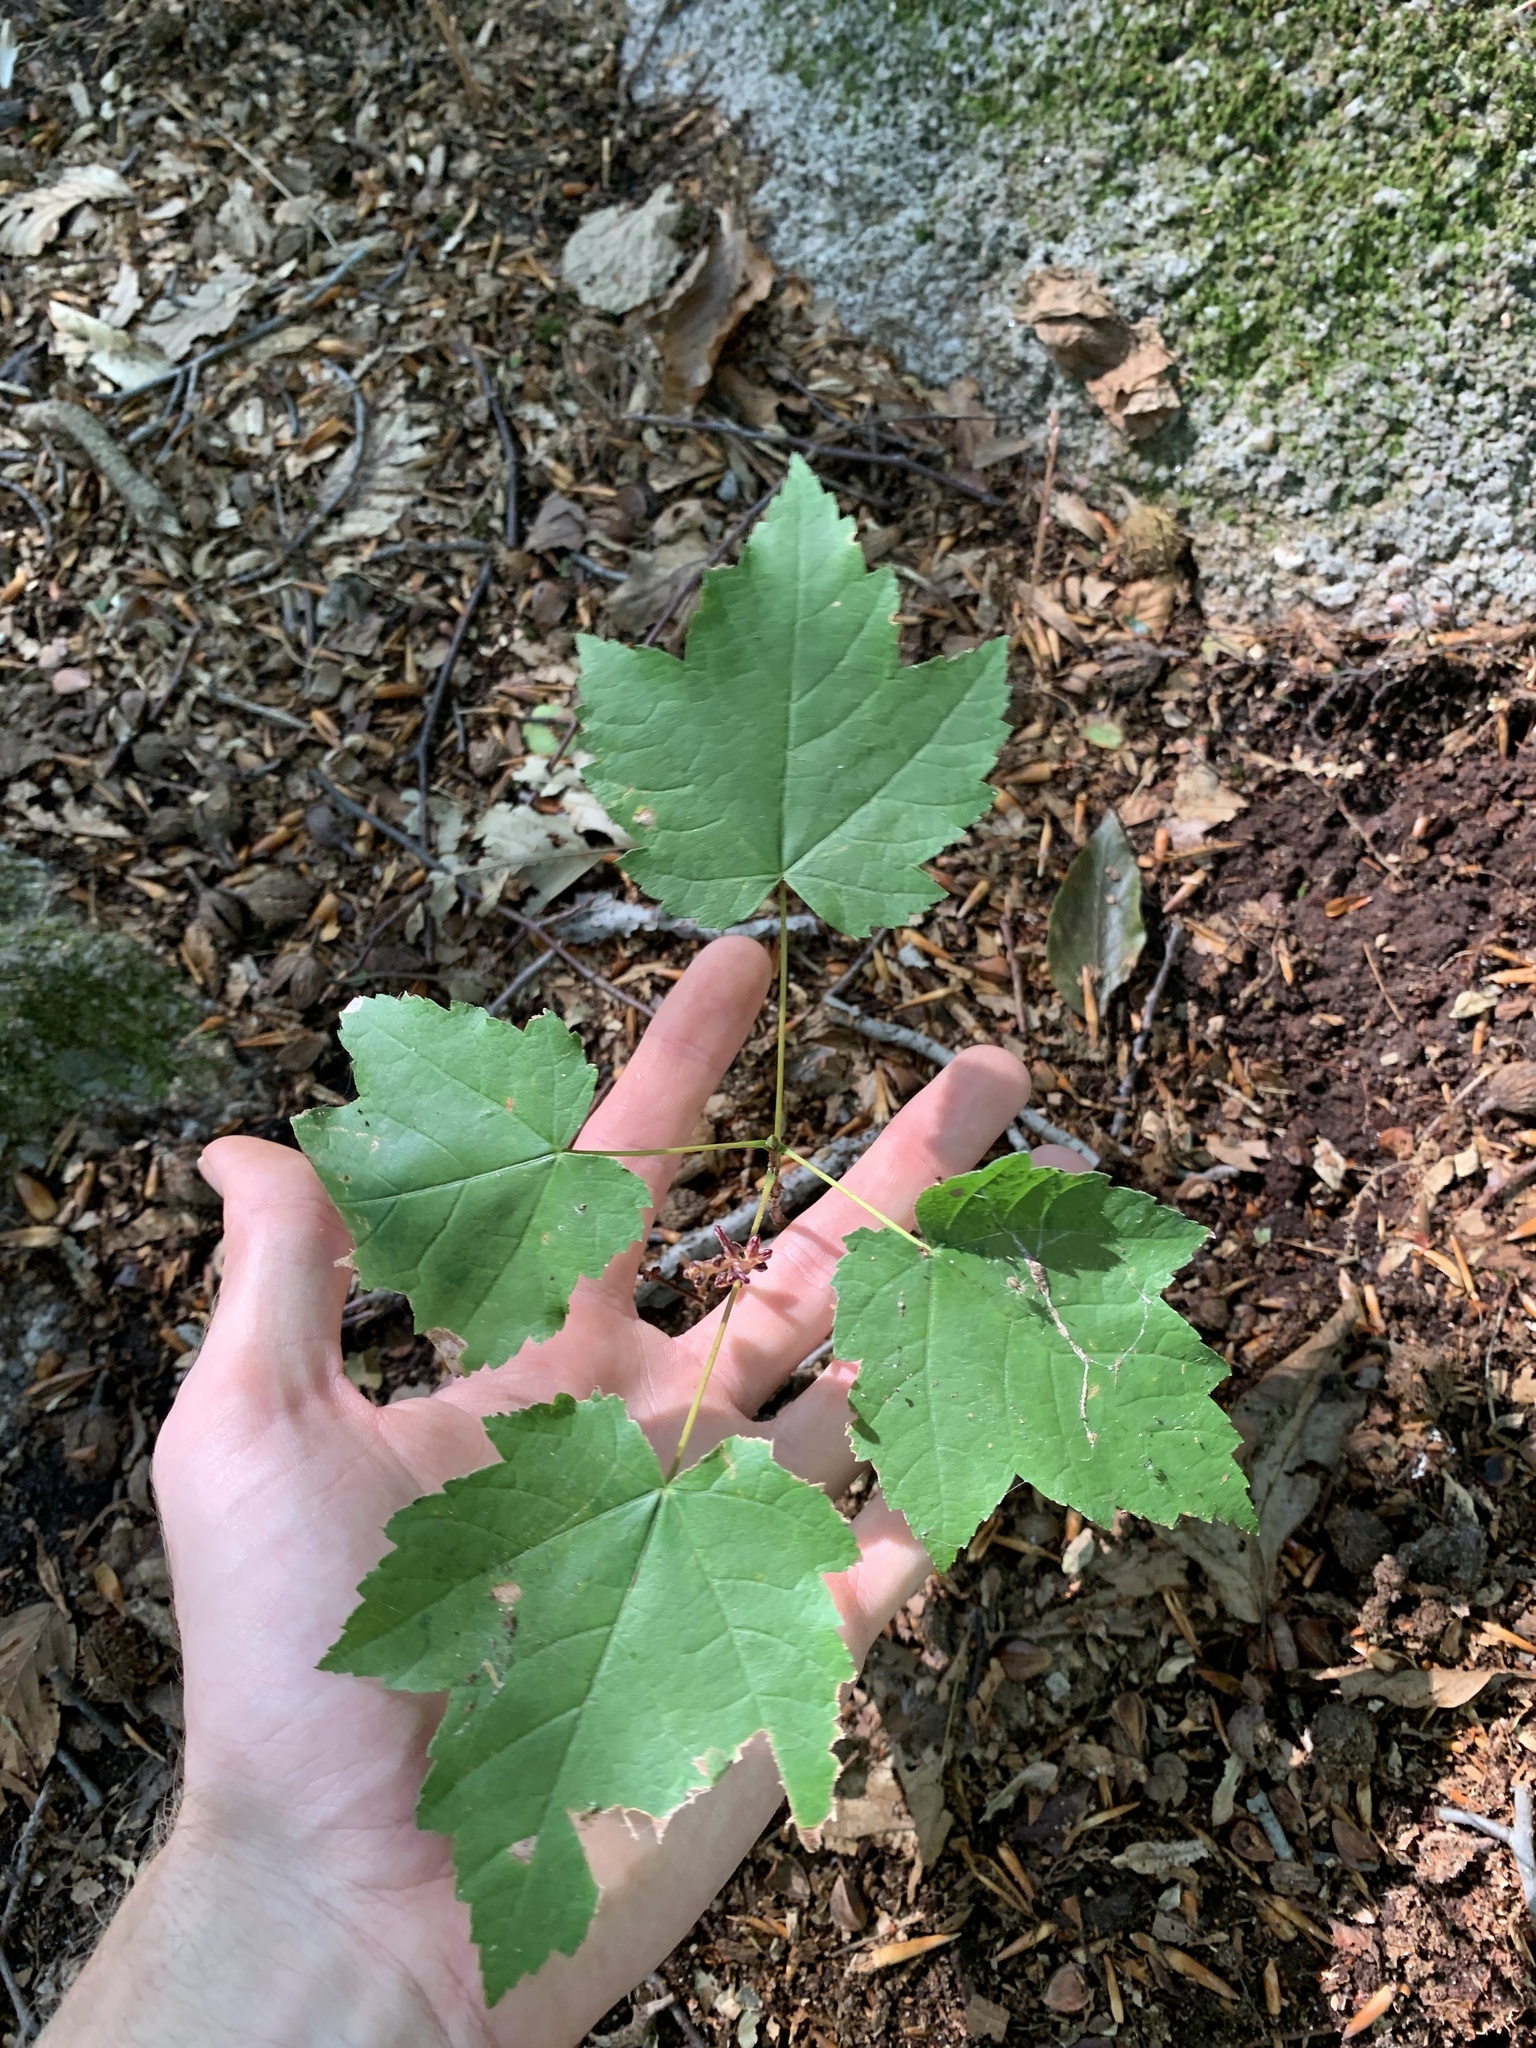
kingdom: Plantae
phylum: Tracheophyta
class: Magnoliopsida
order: Sapindales
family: Sapindaceae
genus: Acer
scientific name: Acer rubrum
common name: Red maple
